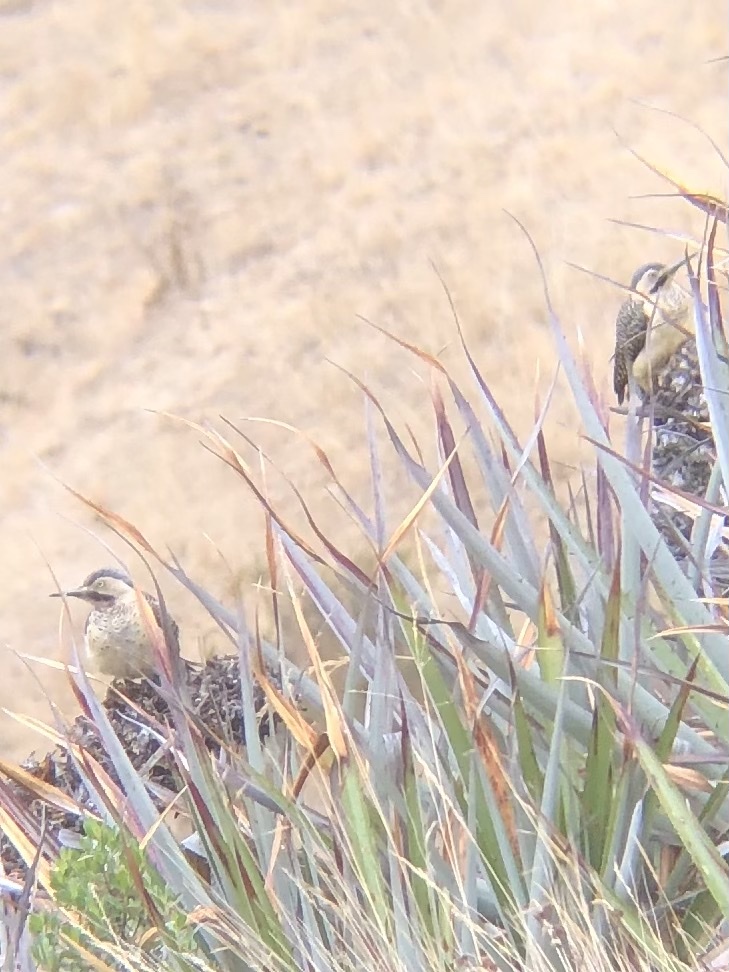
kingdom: Animalia
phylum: Chordata
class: Aves
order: Piciformes
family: Picidae
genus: Colaptes
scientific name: Colaptes rupicola
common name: Andean flicker
